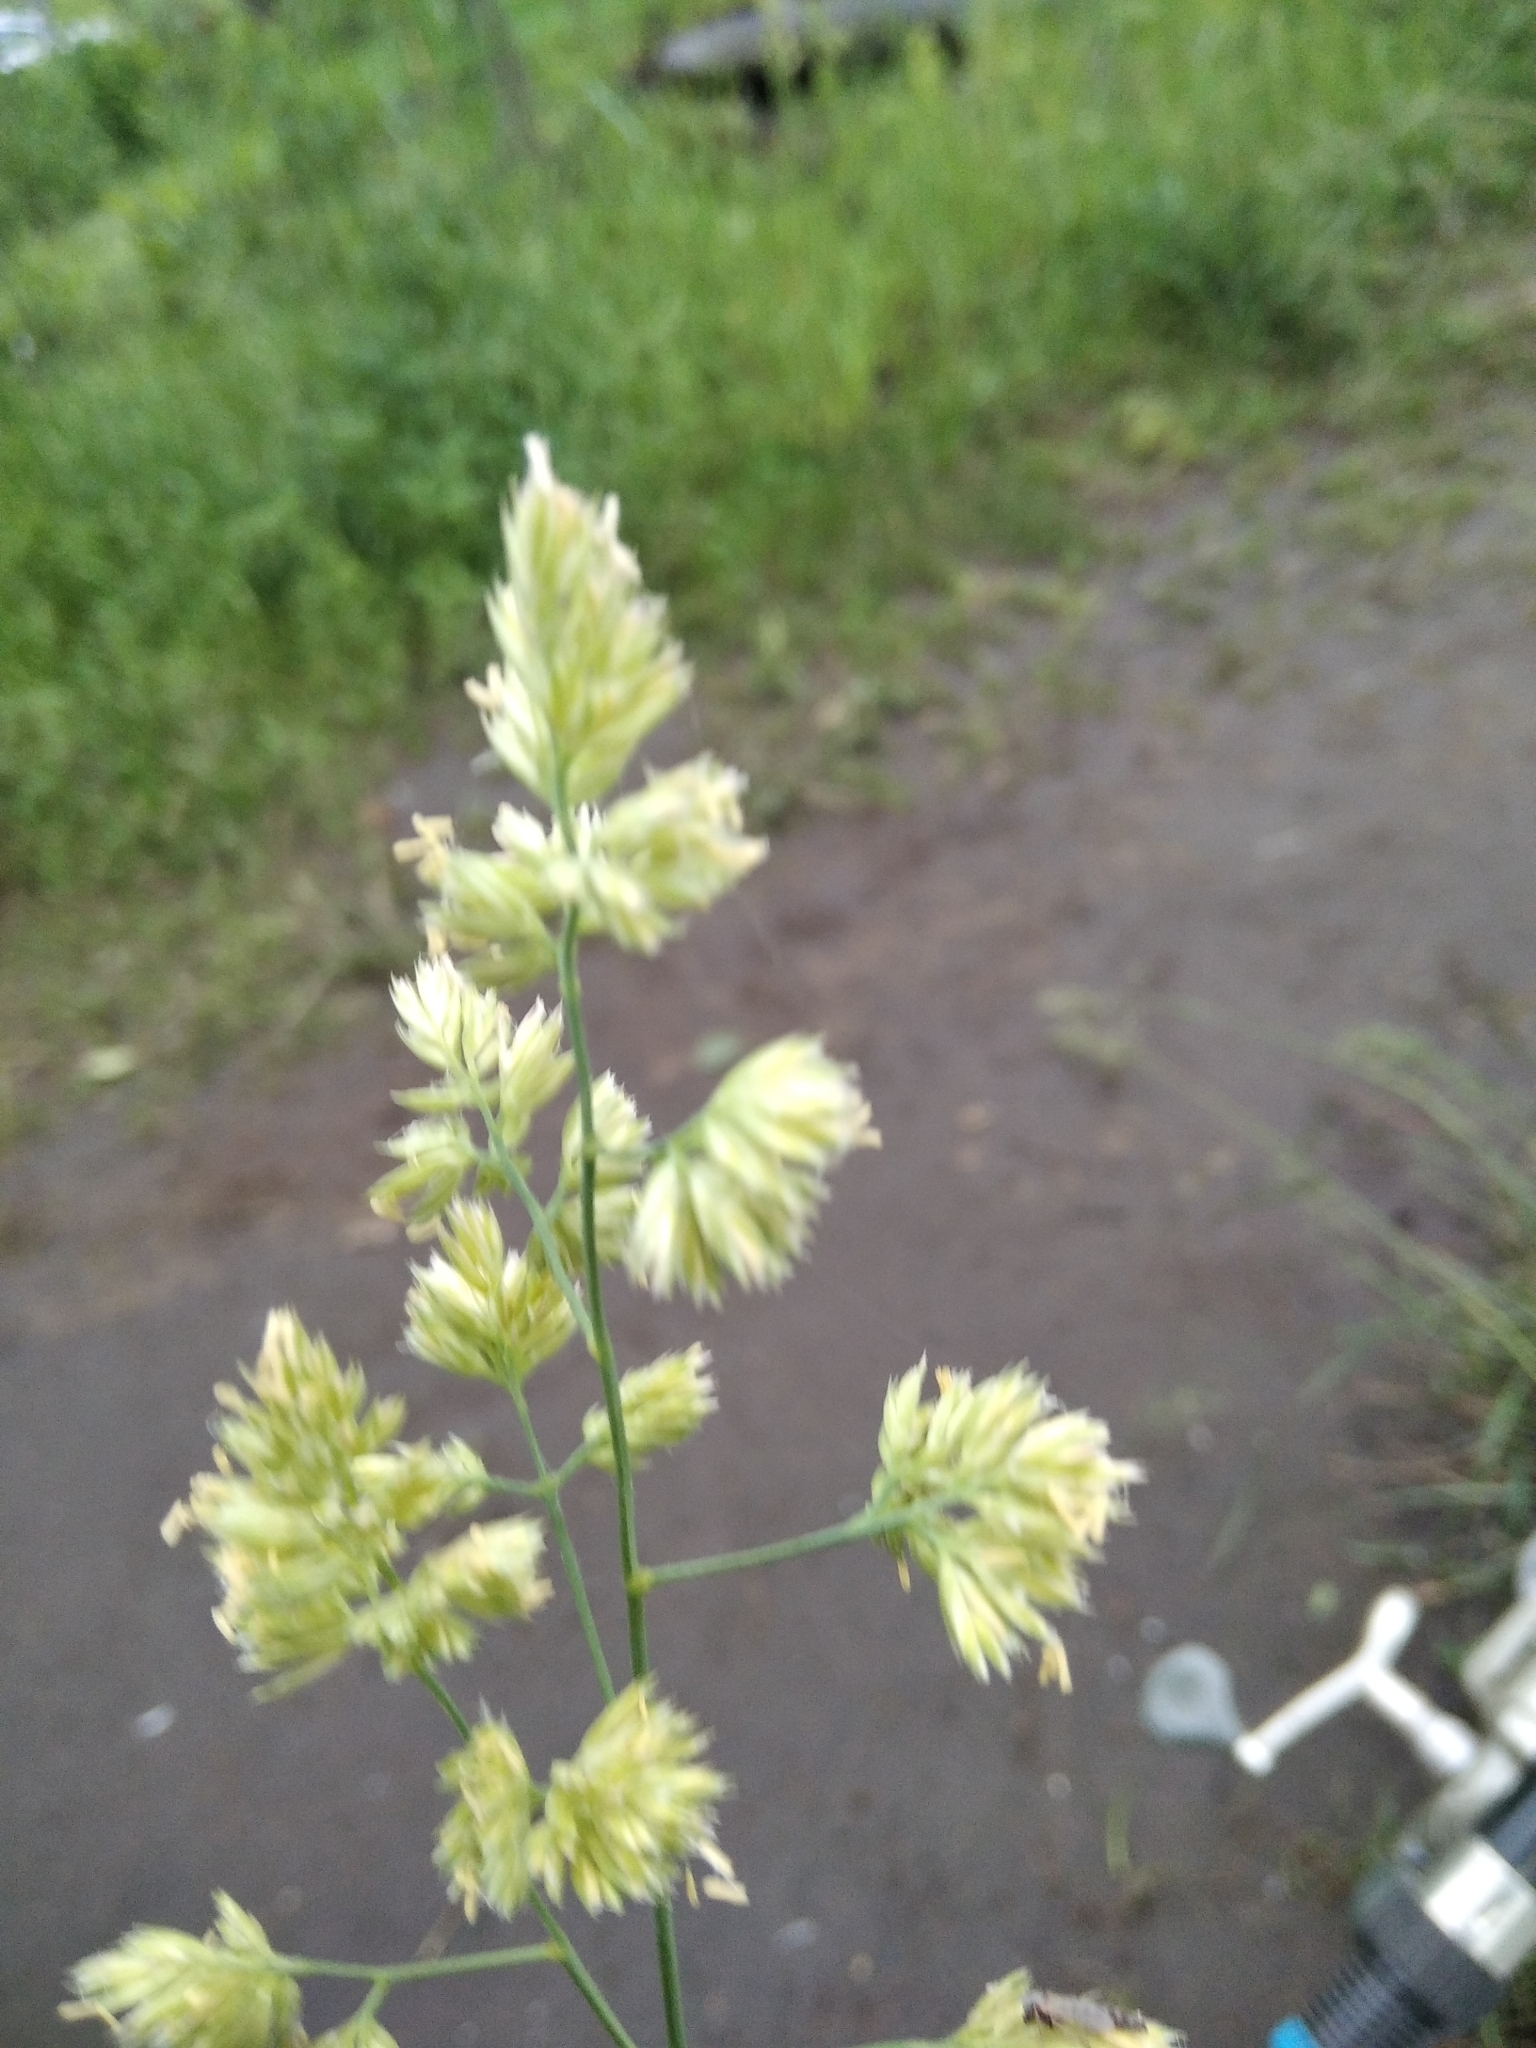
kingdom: Plantae
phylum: Tracheophyta
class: Liliopsida
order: Poales
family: Poaceae
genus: Dactylis
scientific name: Dactylis glomerata
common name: Orchardgrass
